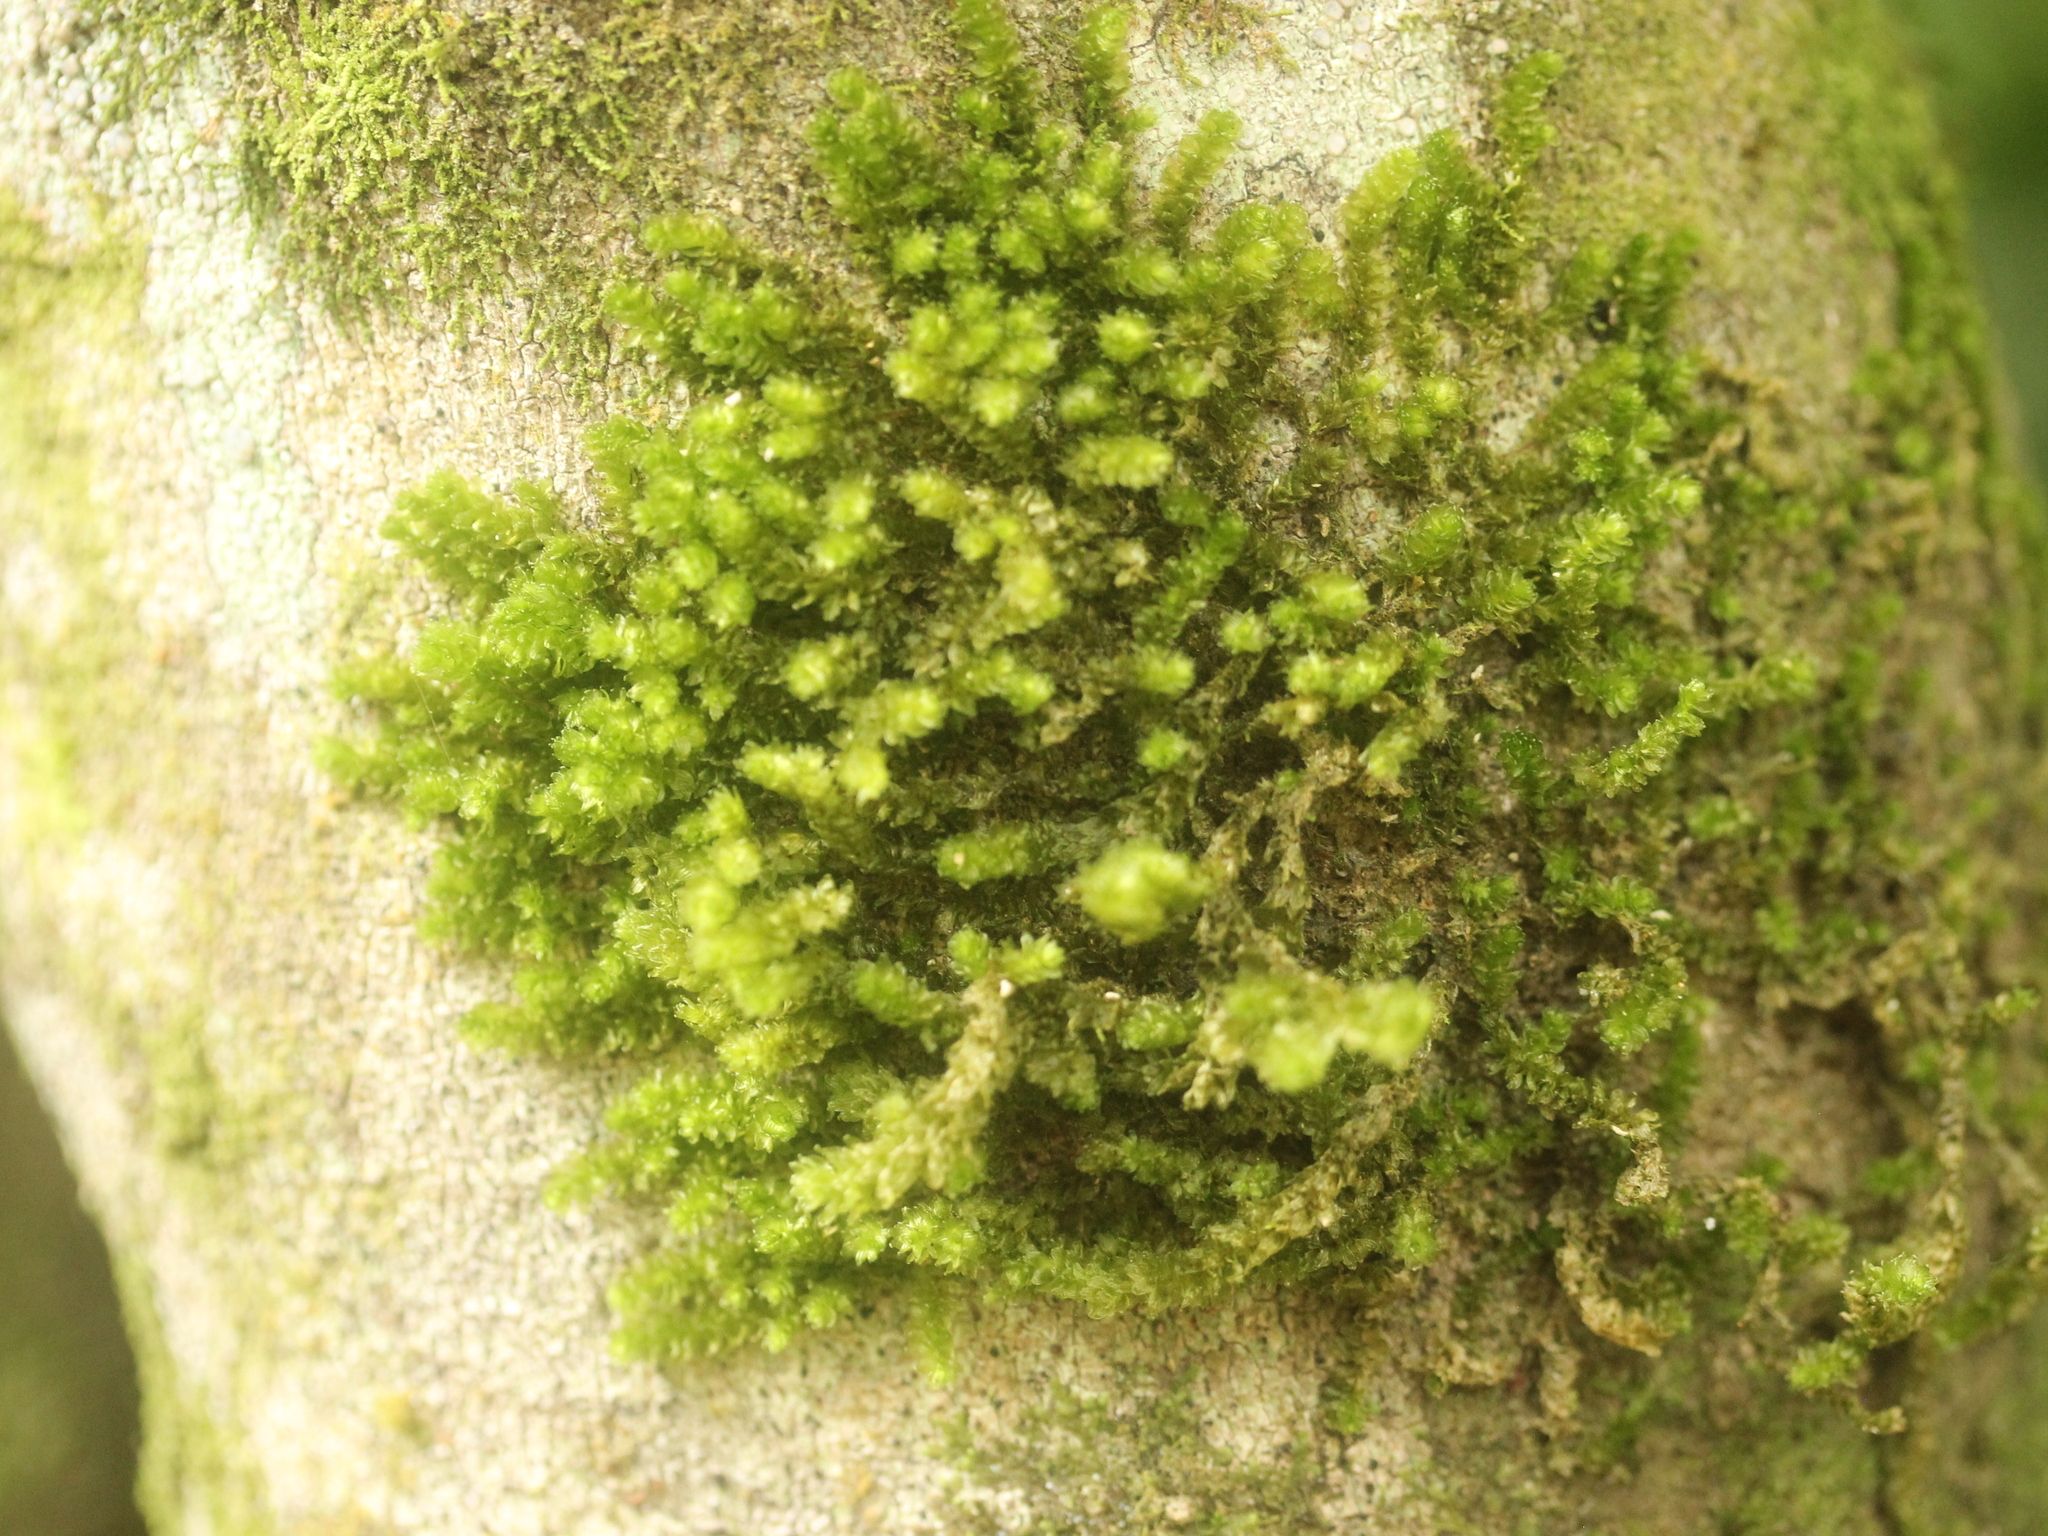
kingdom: Plantae
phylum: Bryophyta
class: Bryopsida
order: Ptychomniales
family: Ptychomniaceae
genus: Cladomnion
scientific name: Cladomnion ericoides
